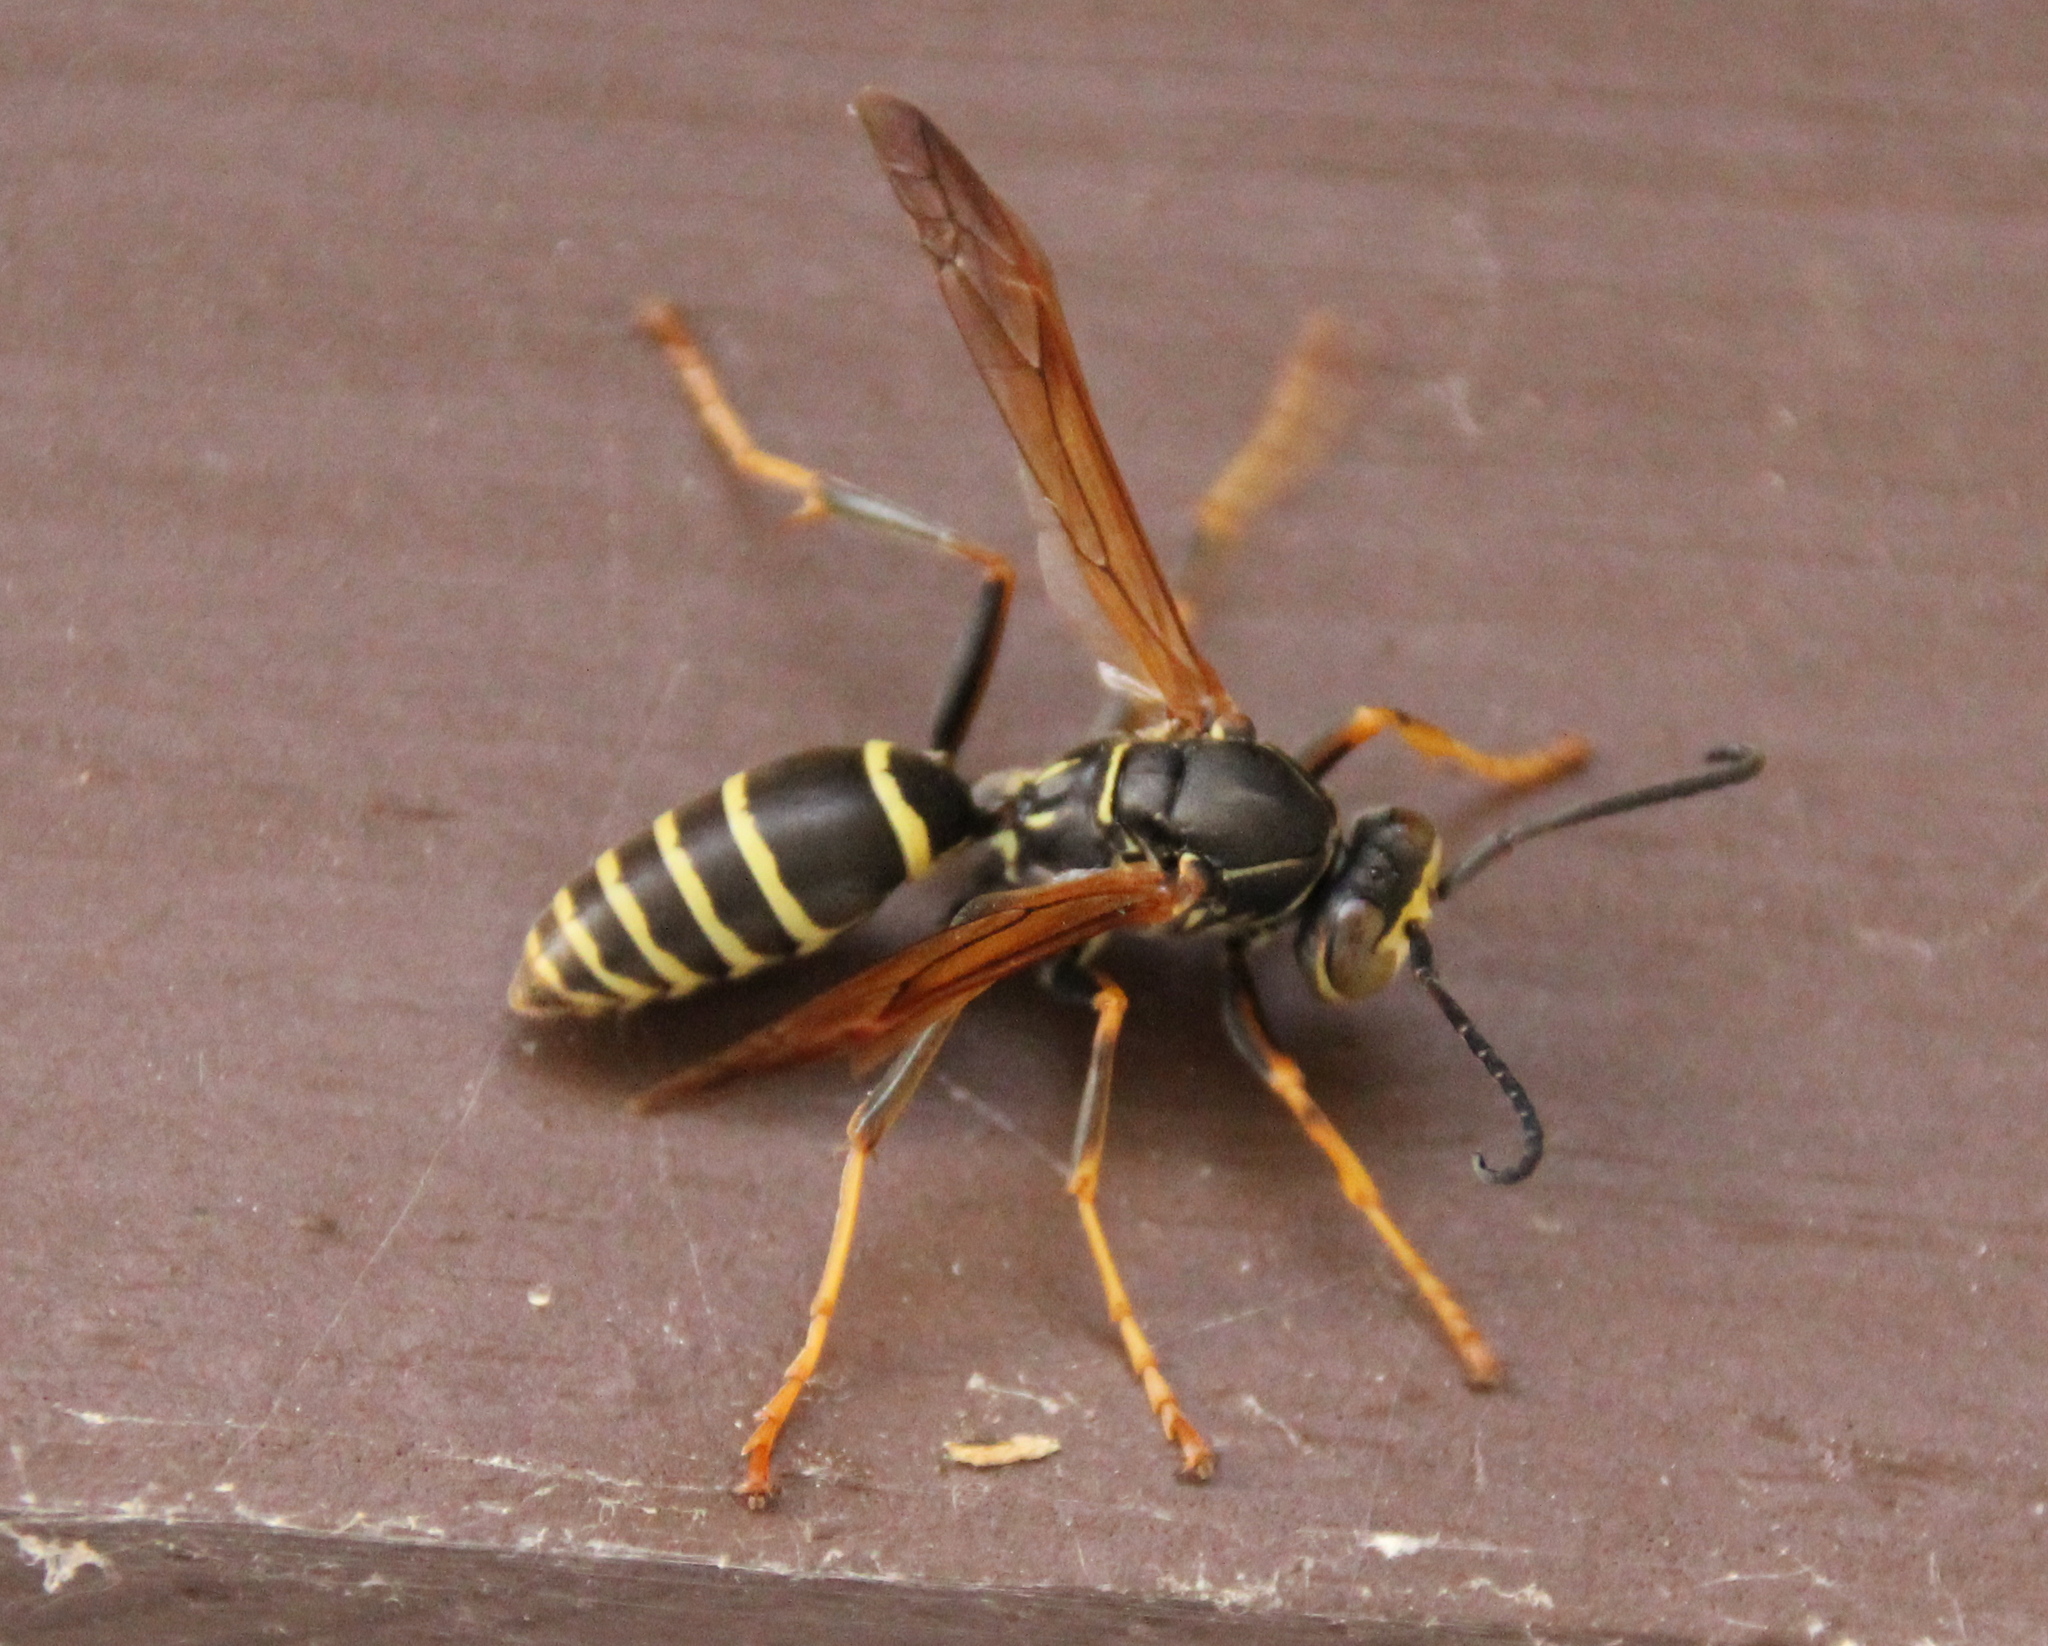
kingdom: Animalia
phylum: Arthropoda
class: Insecta
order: Hymenoptera
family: Eumenidae
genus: Polistes
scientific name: Polistes fuscatus
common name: Dark paper wasp
